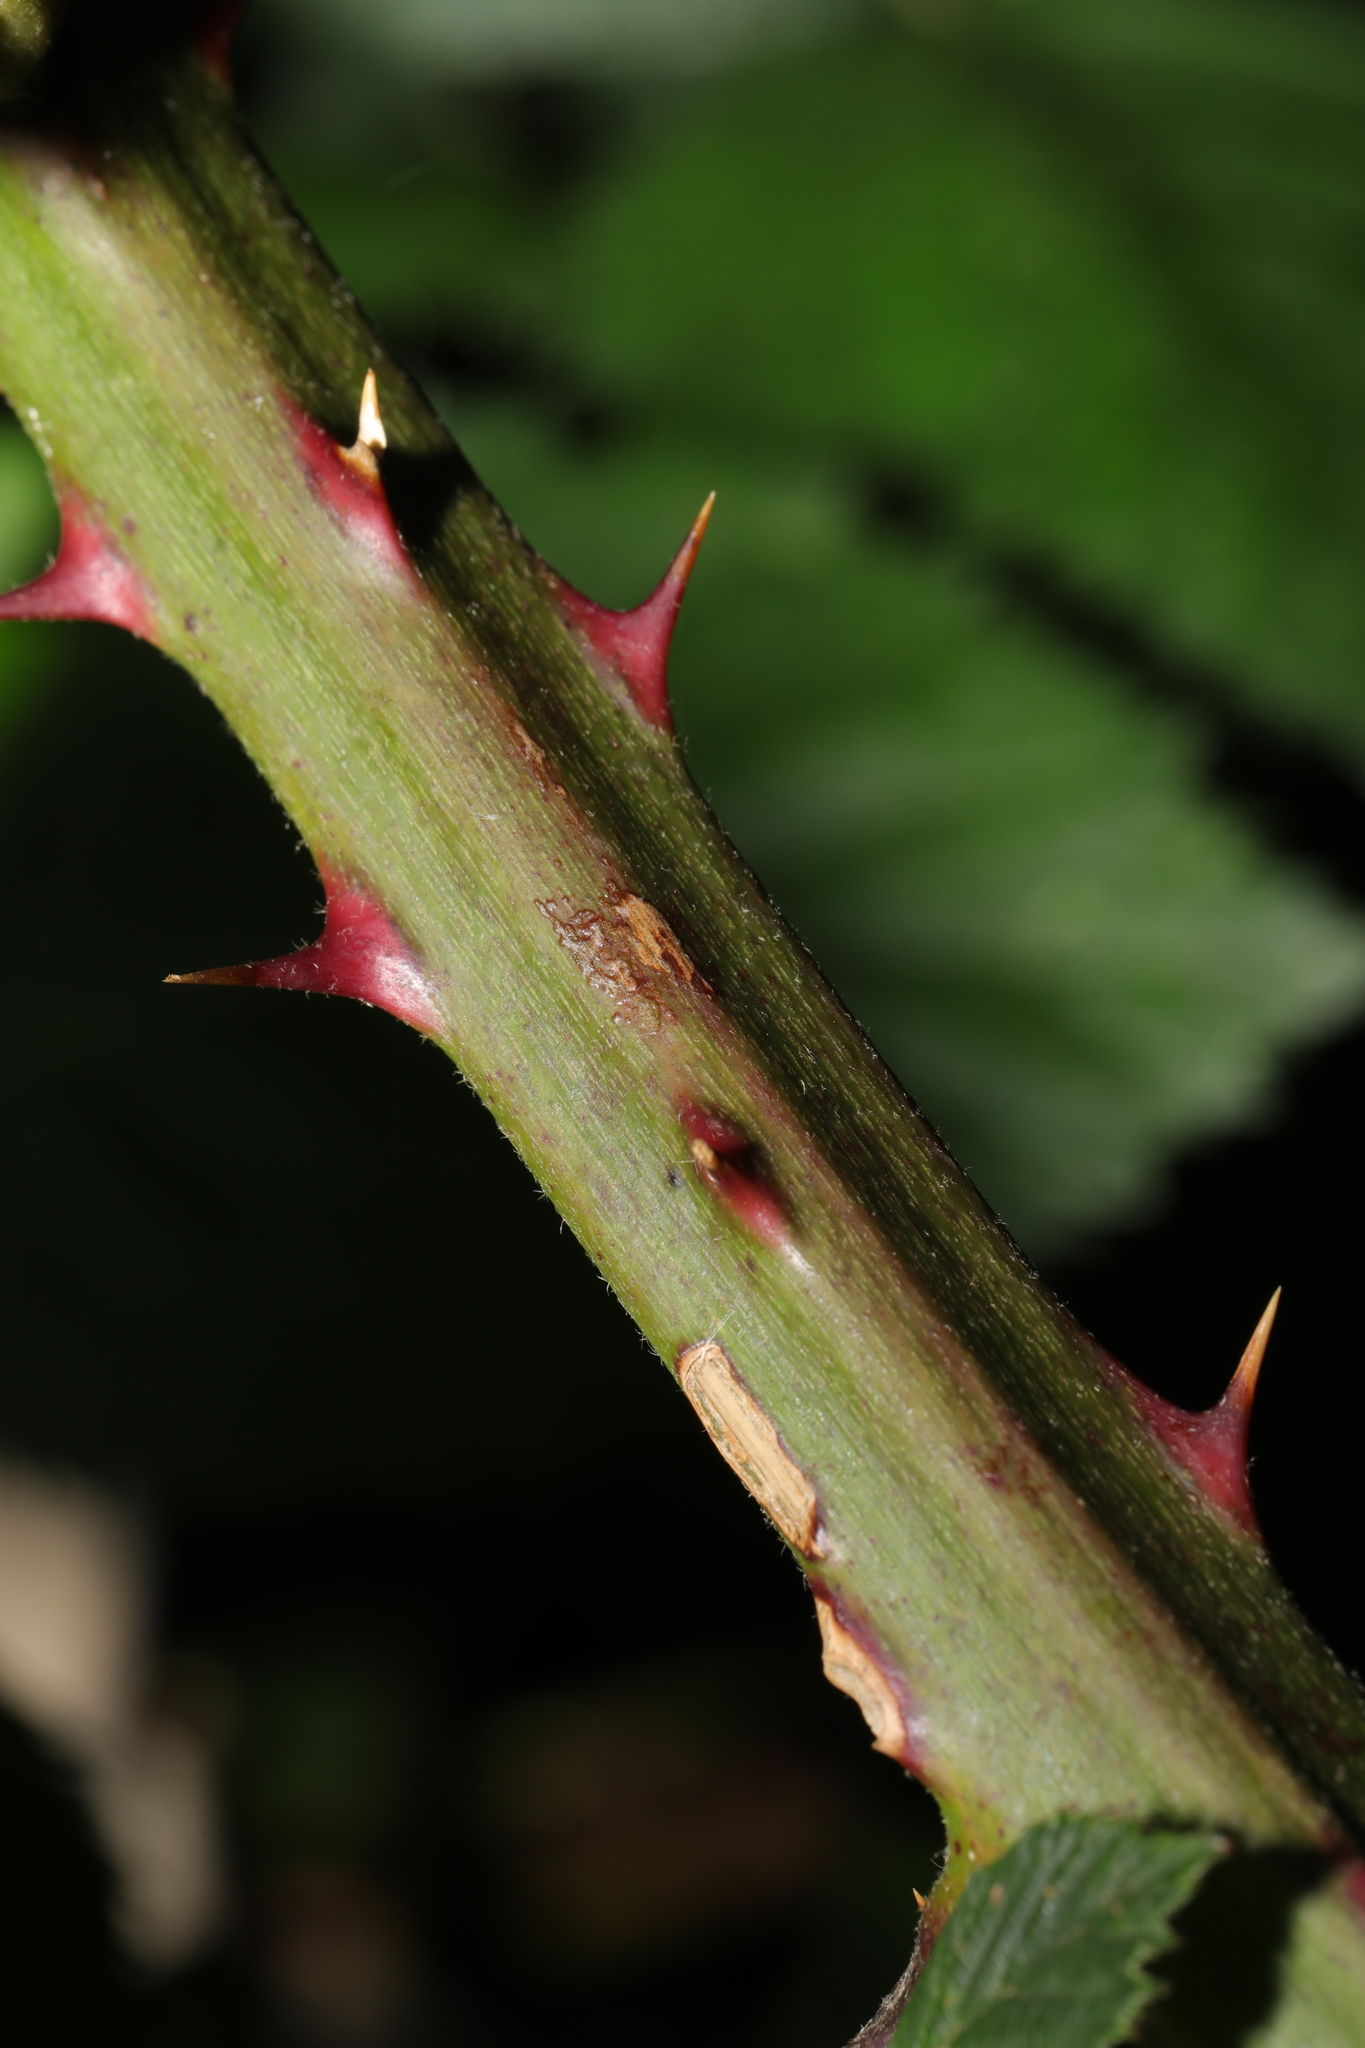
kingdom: Plantae
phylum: Tracheophyta
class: Magnoliopsida
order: Rosales
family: Rosaceae
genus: Rubus
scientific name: Rubus fruticosus
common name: Blackberry, bramble
